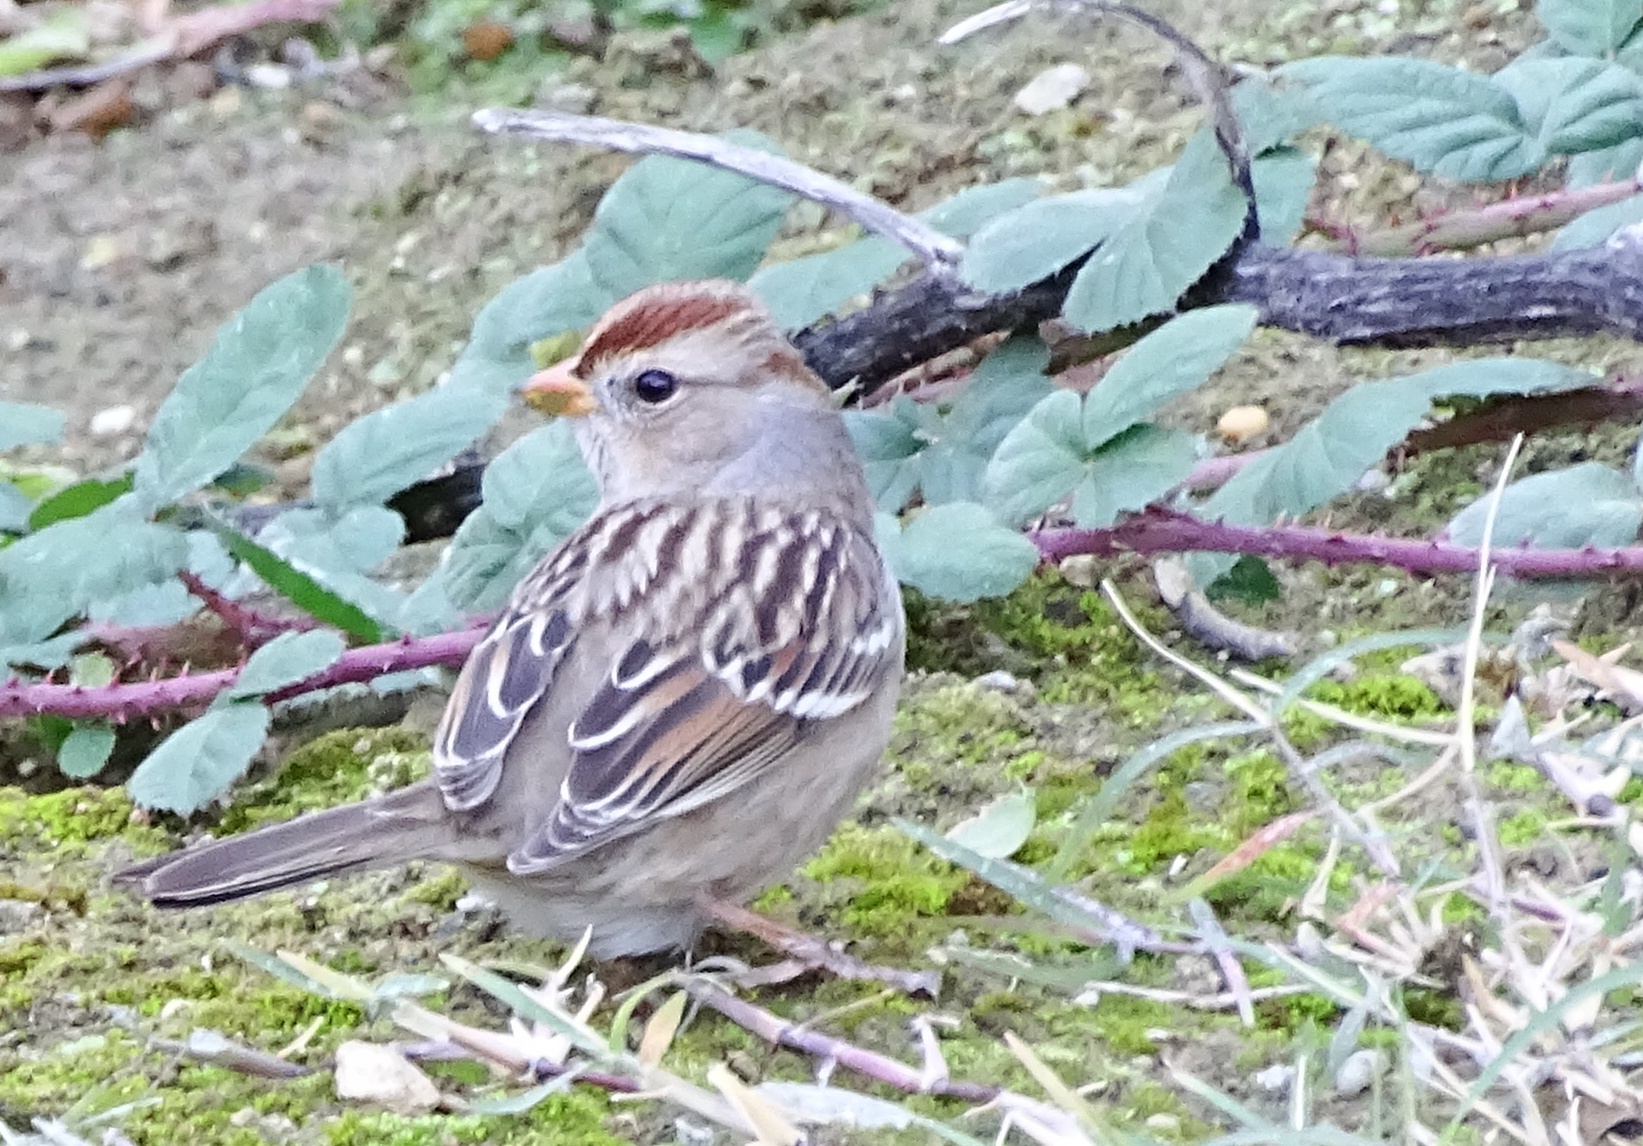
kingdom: Animalia
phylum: Chordata
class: Aves
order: Passeriformes
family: Passerellidae
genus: Zonotrichia
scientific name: Zonotrichia leucophrys
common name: White-crowned sparrow
